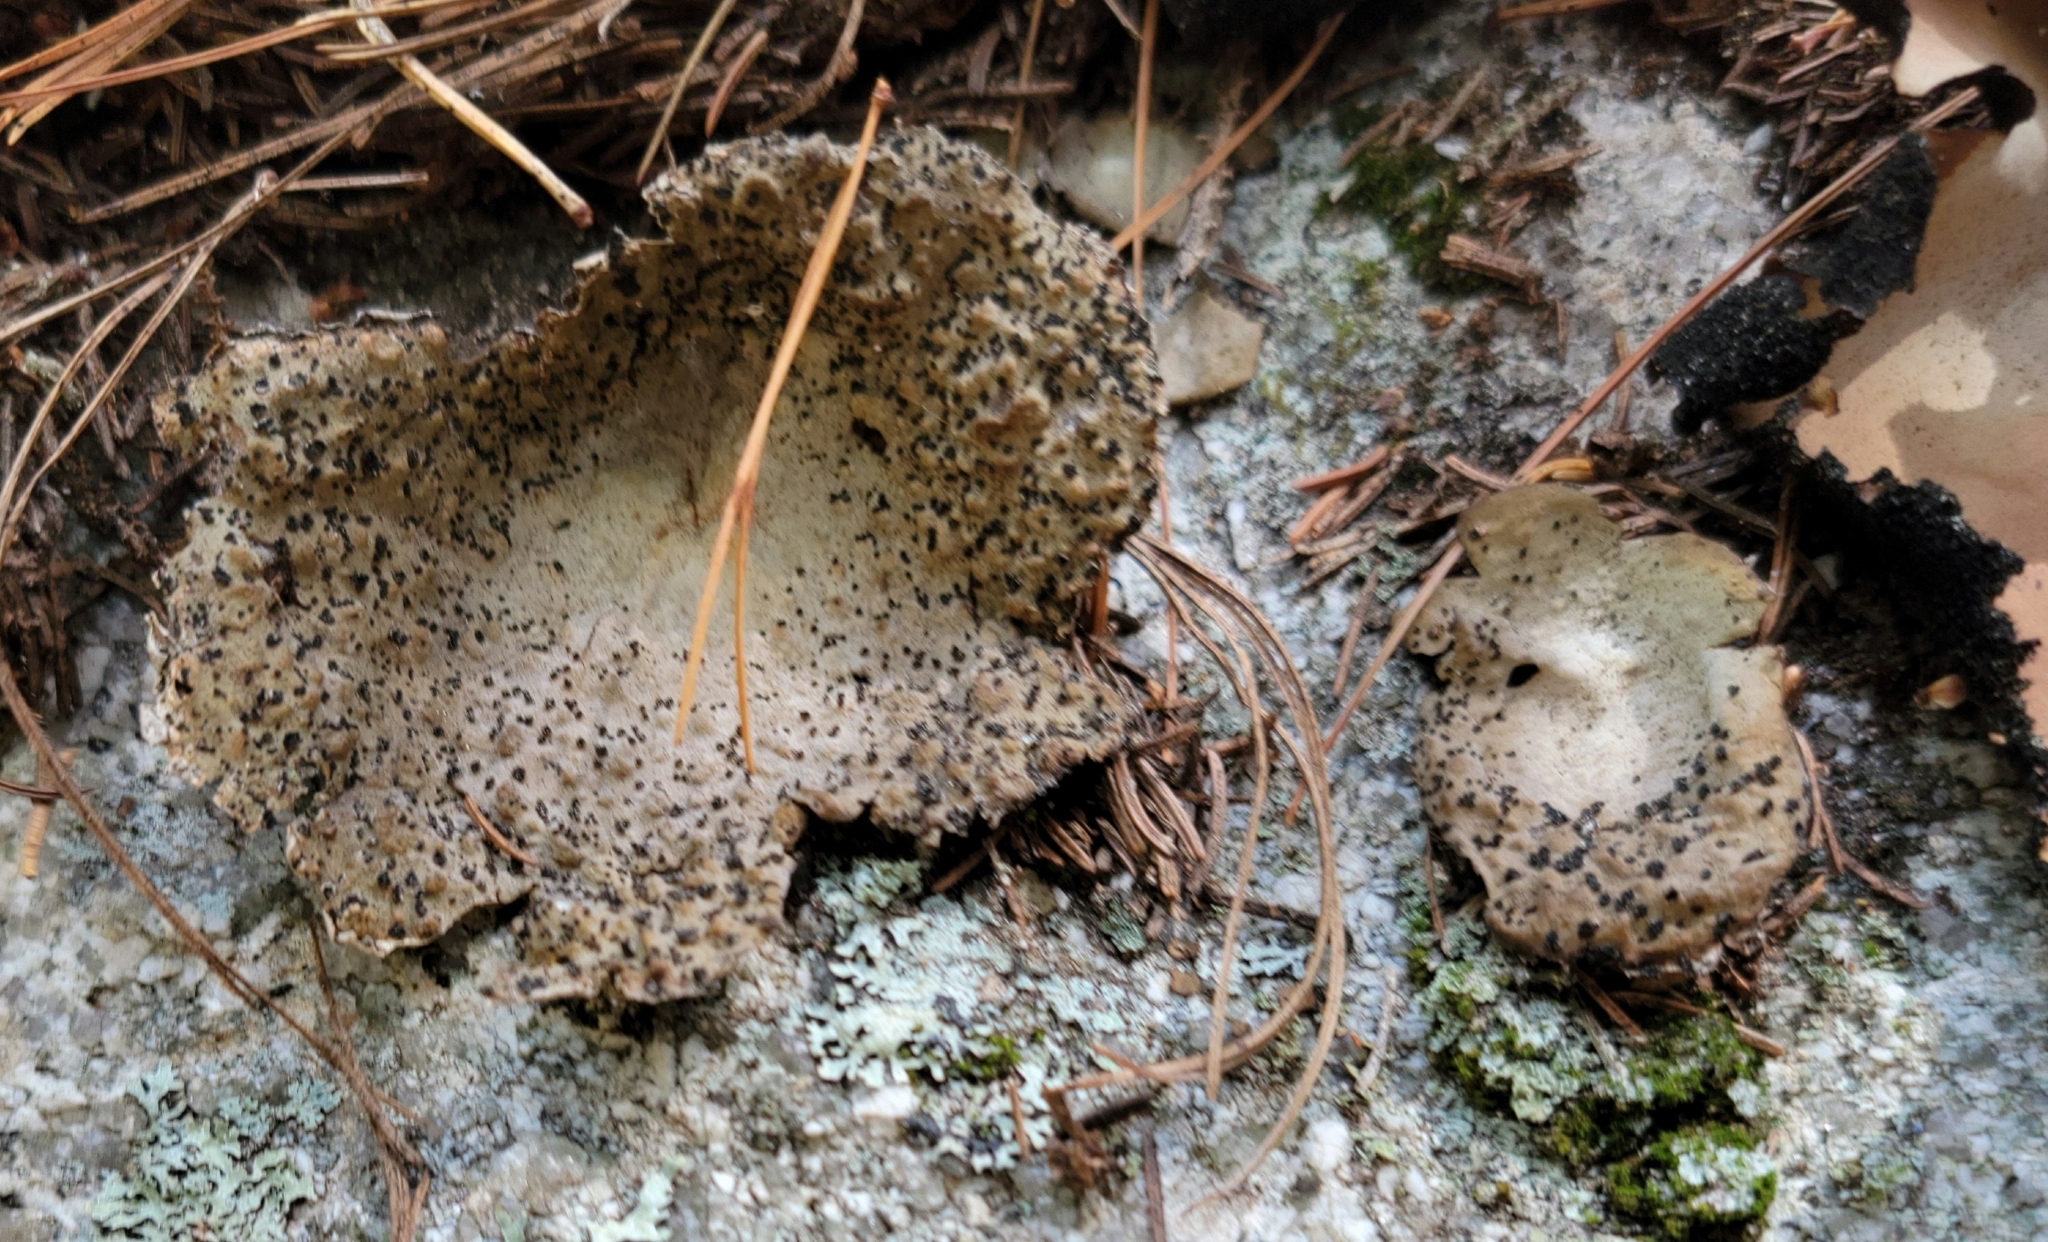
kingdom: Fungi
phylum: Ascomycota
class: Lecanoromycetes
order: Umbilicariales
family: Umbilicariaceae
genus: Lasallia
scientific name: Lasallia papulosa
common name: Common toadskin lichen
